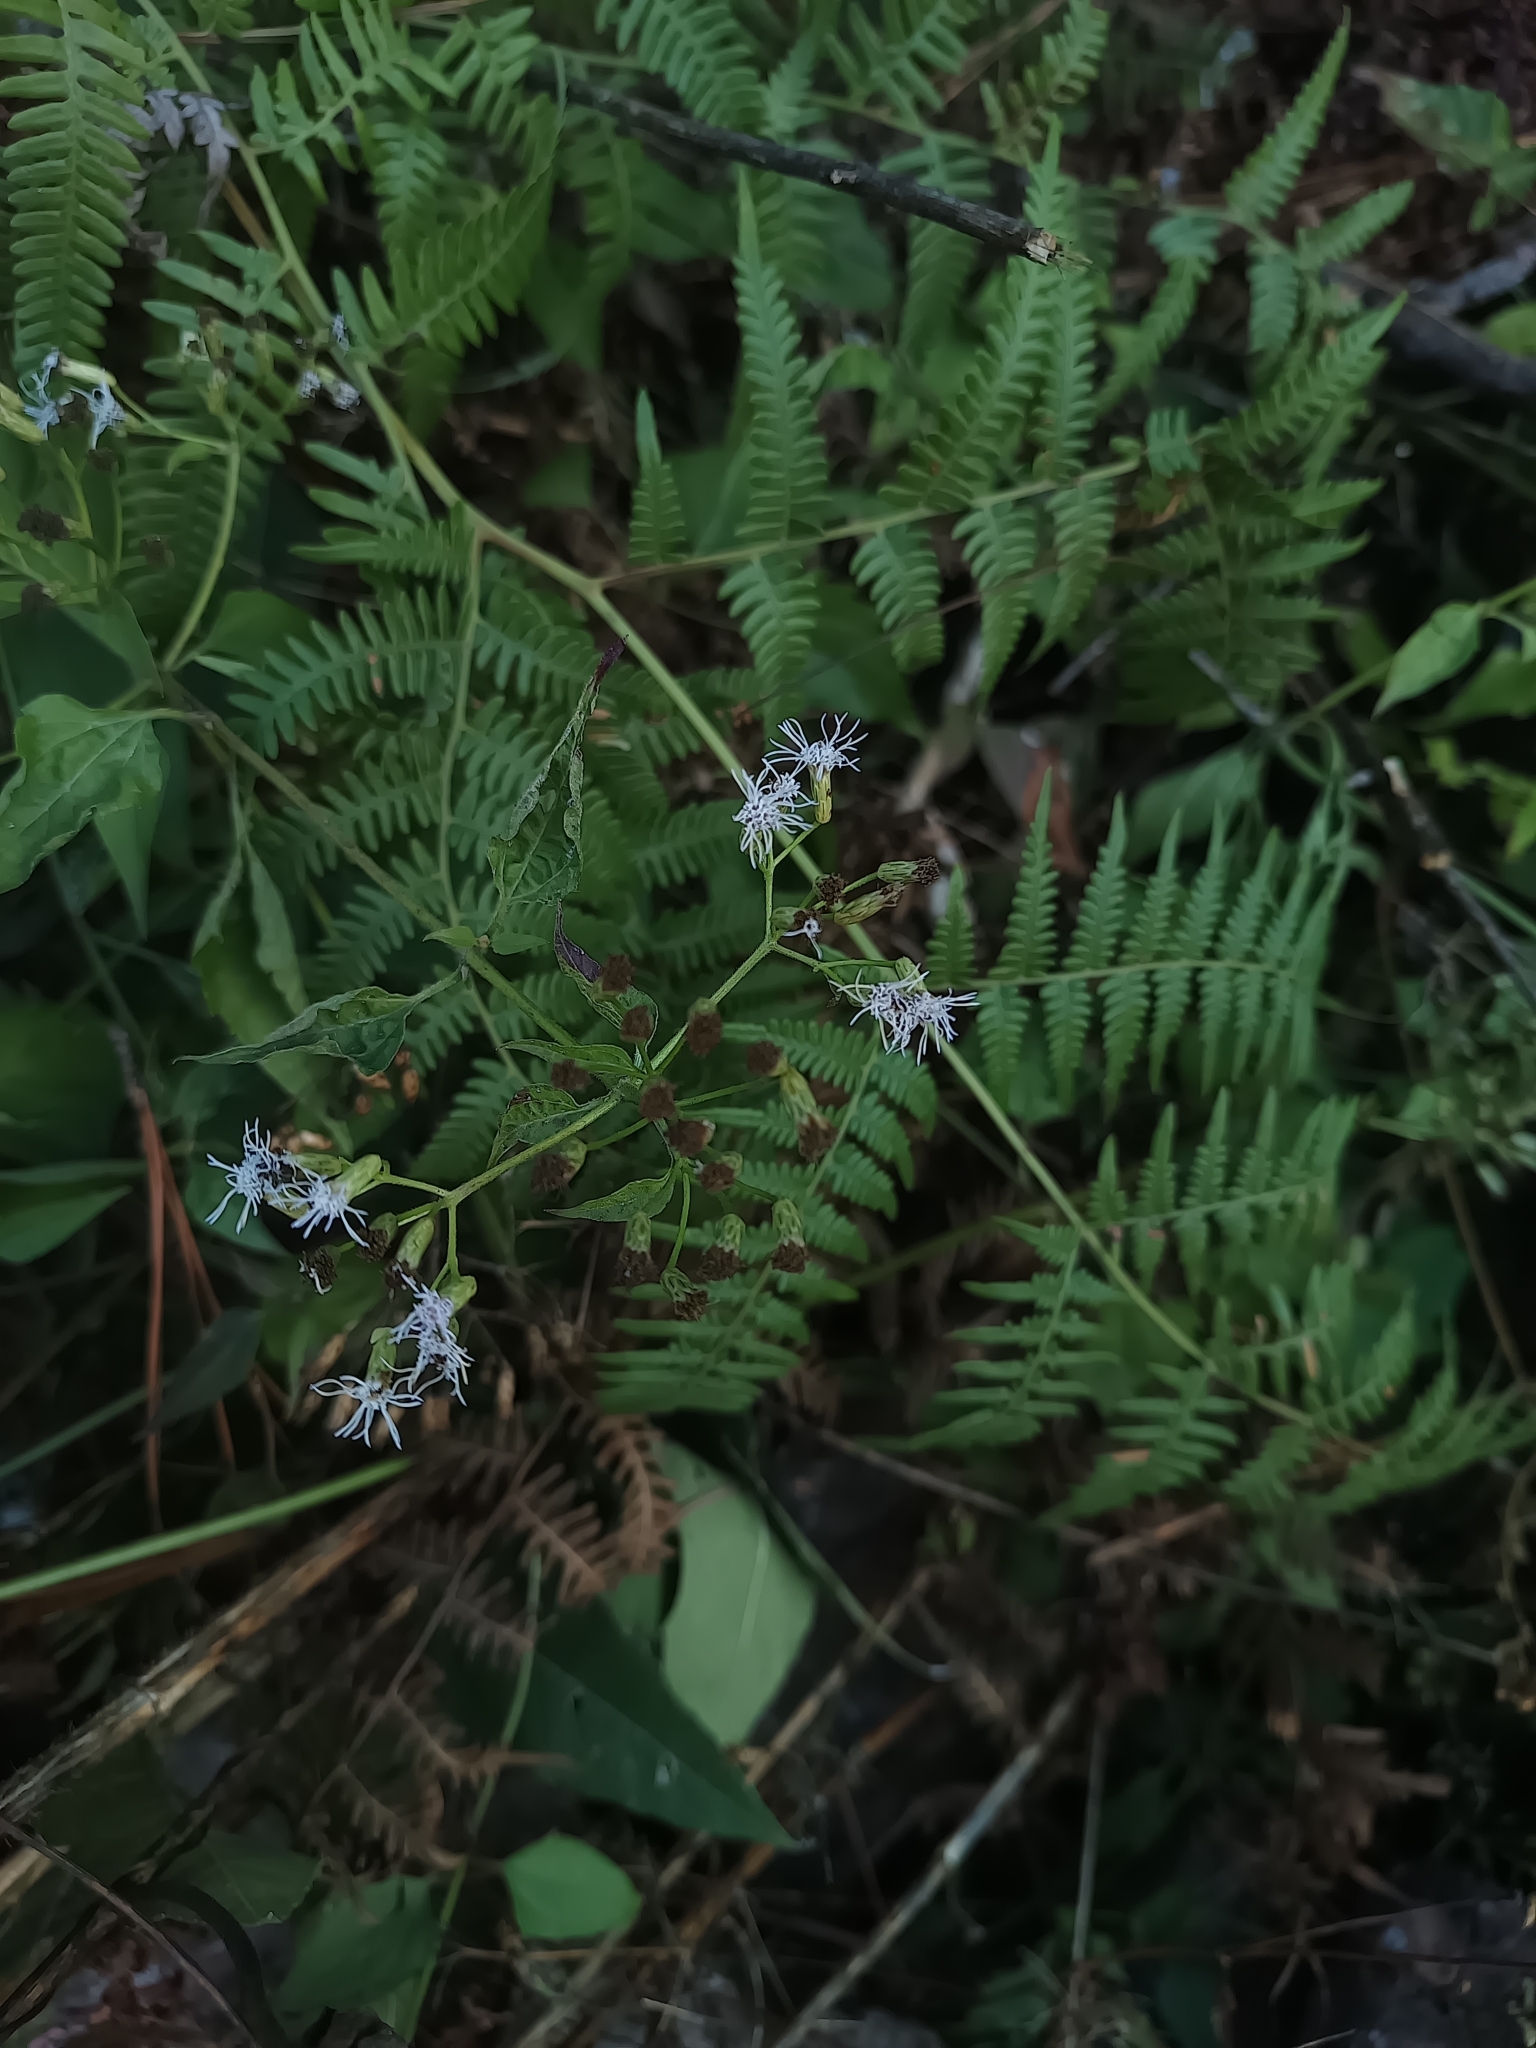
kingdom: Plantae
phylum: Tracheophyta
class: Magnoliopsida
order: Asterales
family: Asteraceae
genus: Chromolaena
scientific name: Chromolaena odorata
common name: Siamweed
